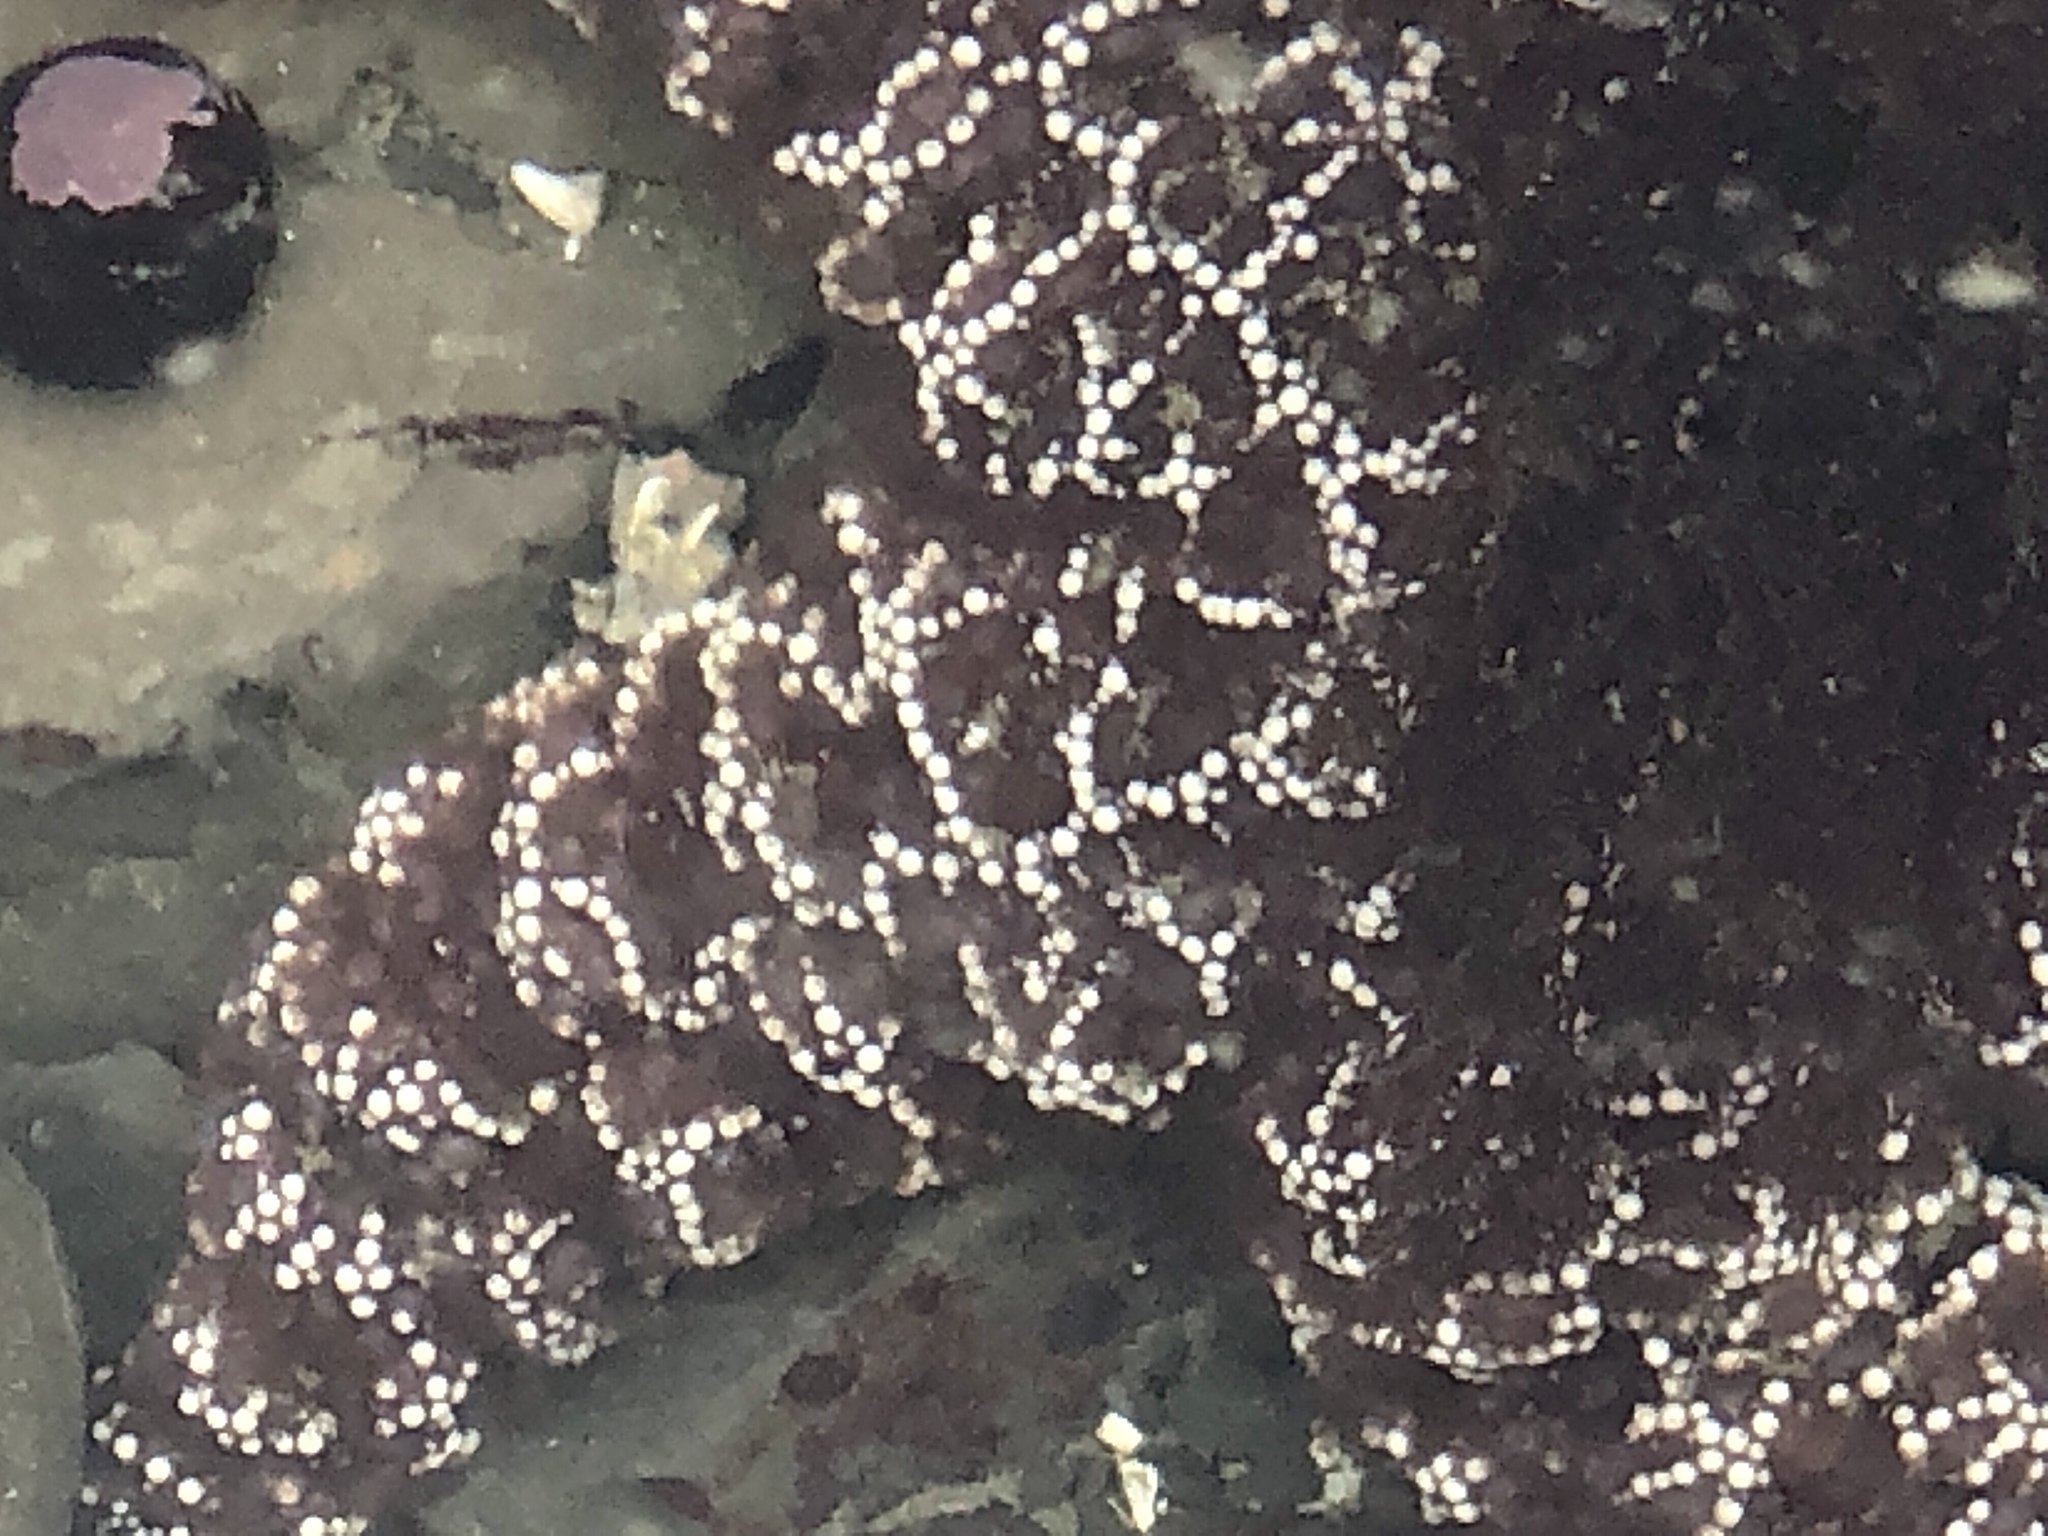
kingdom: Animalia
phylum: Echinodermata
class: Asteroidea
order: Forcipulatida
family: Asteriidae
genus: Pisaster
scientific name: Pisaster ochraceus
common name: Ochre stars
